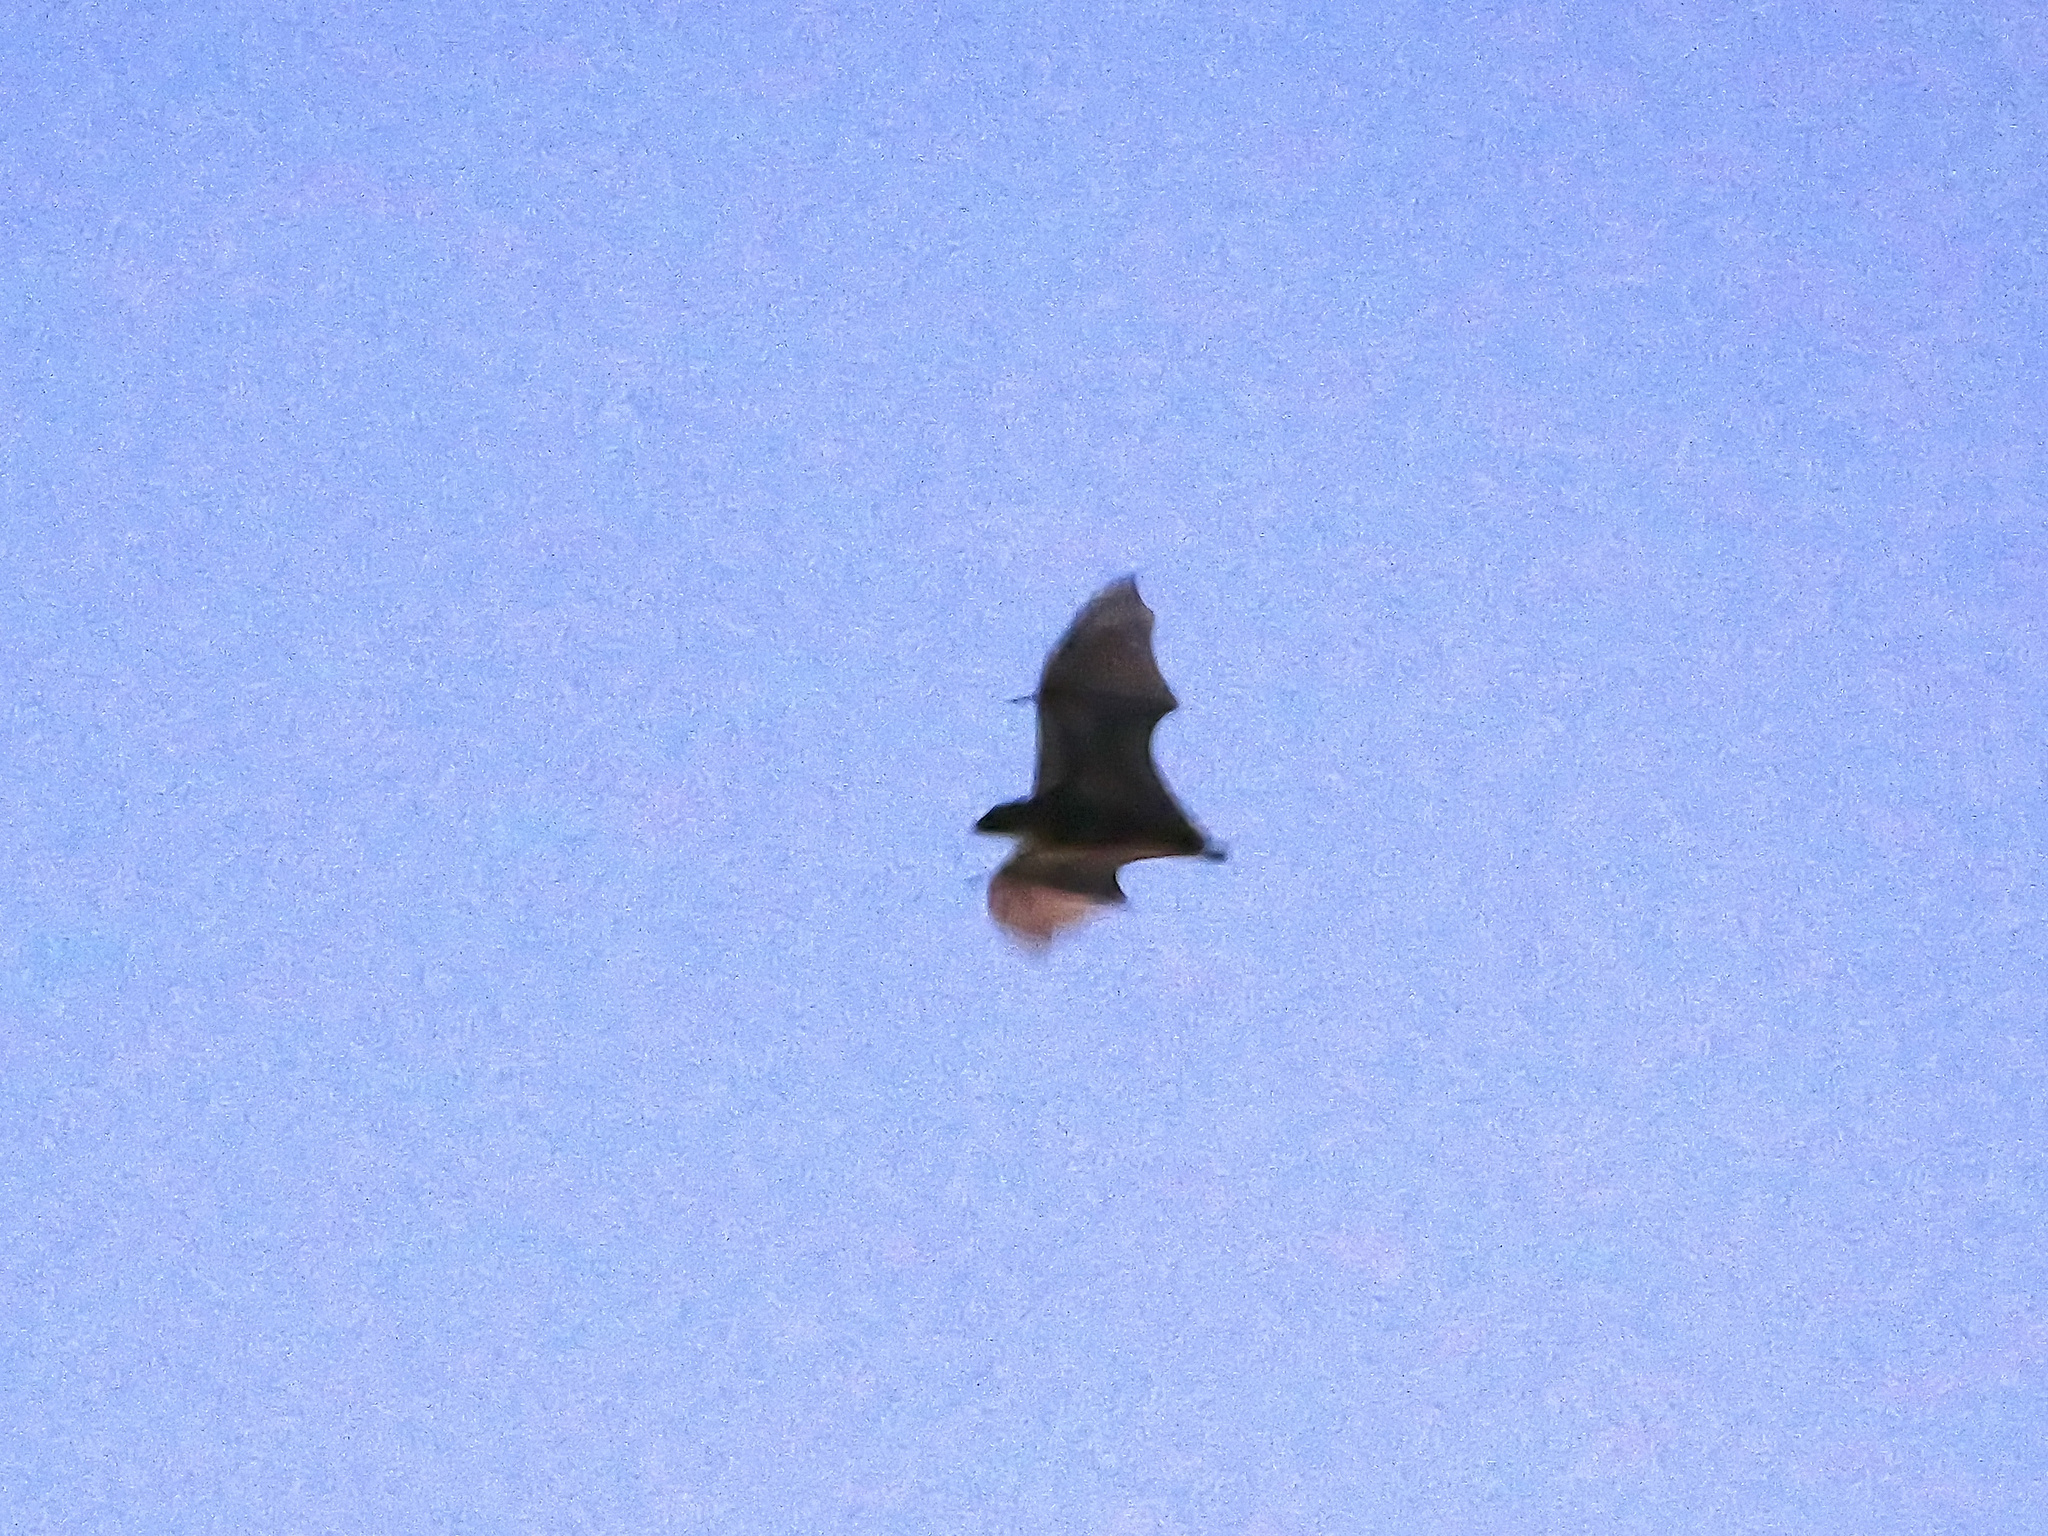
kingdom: Animalia
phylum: Chordata
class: Mammalia
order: Chiroptera
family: Pteropodidae
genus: Eidolon
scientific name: Eidolon helvum
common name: Straw-colored fruit bat
